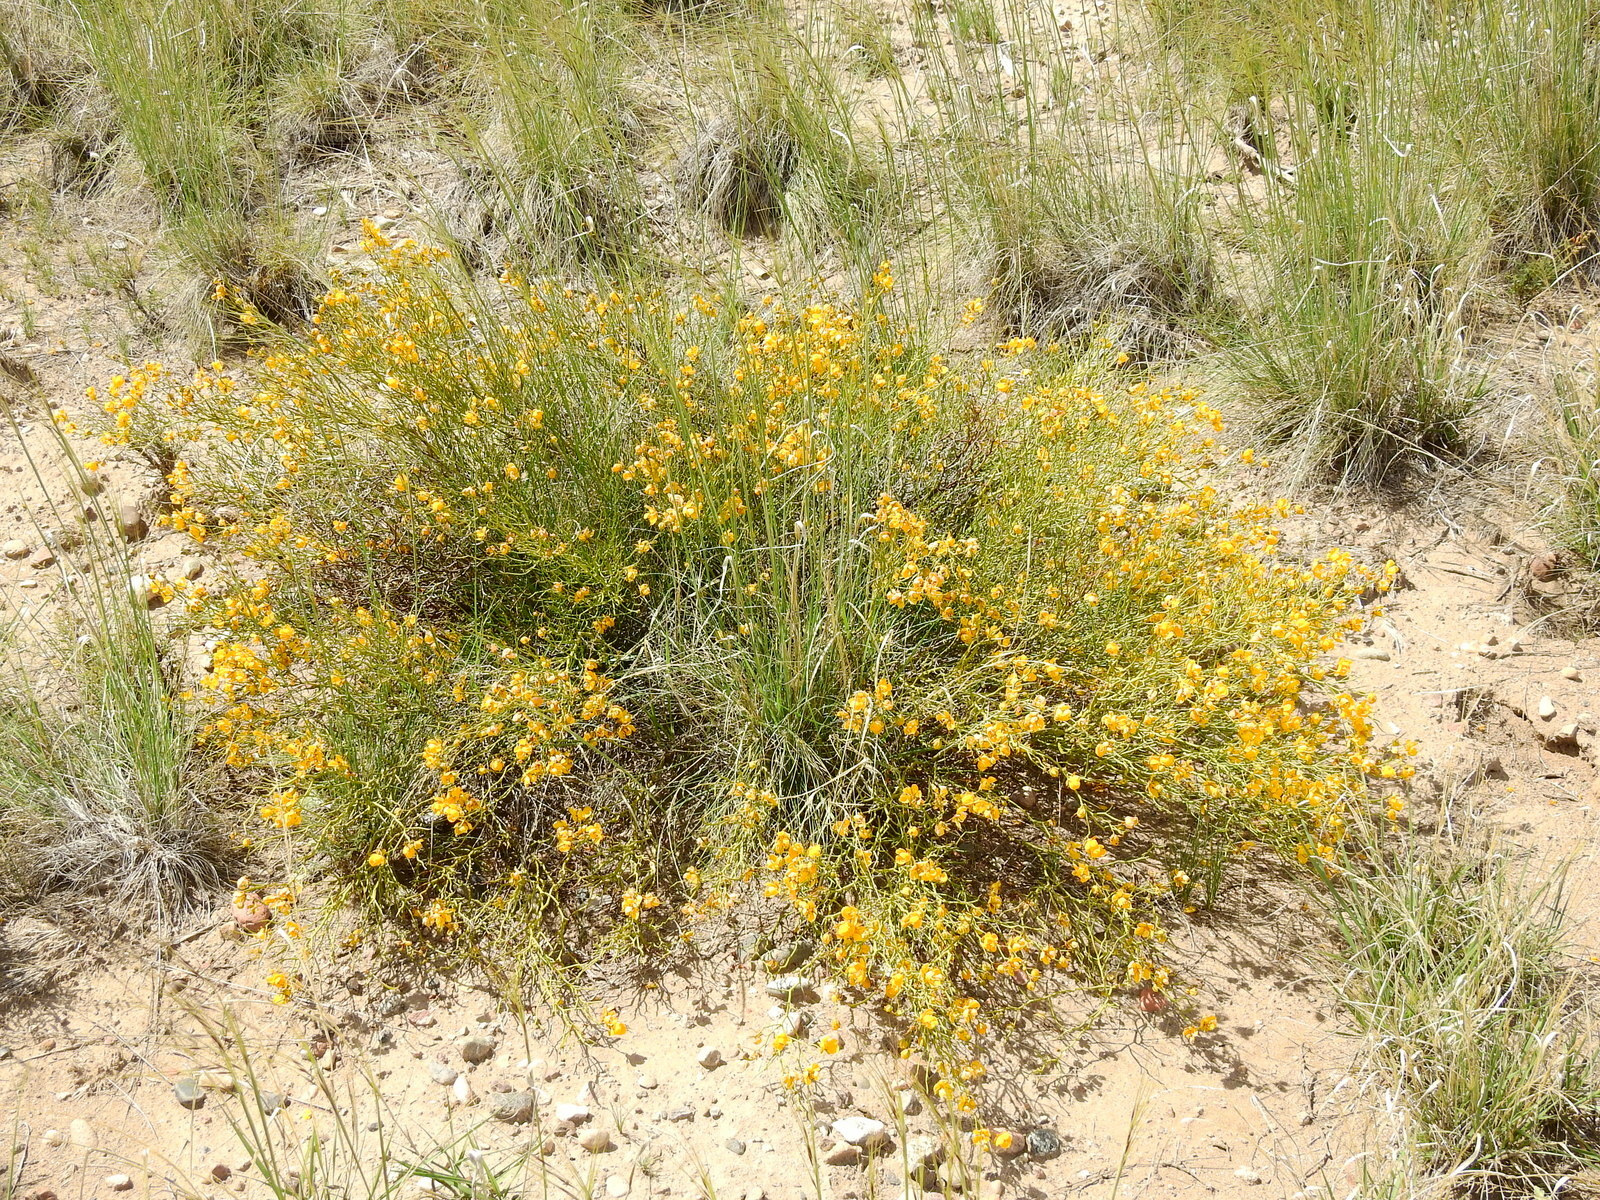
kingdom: Plantae
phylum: Tracheophyta
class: Magnoliopsida
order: Fabales
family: Fabaceae
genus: Senna
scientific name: Senna pachyrrhiza
